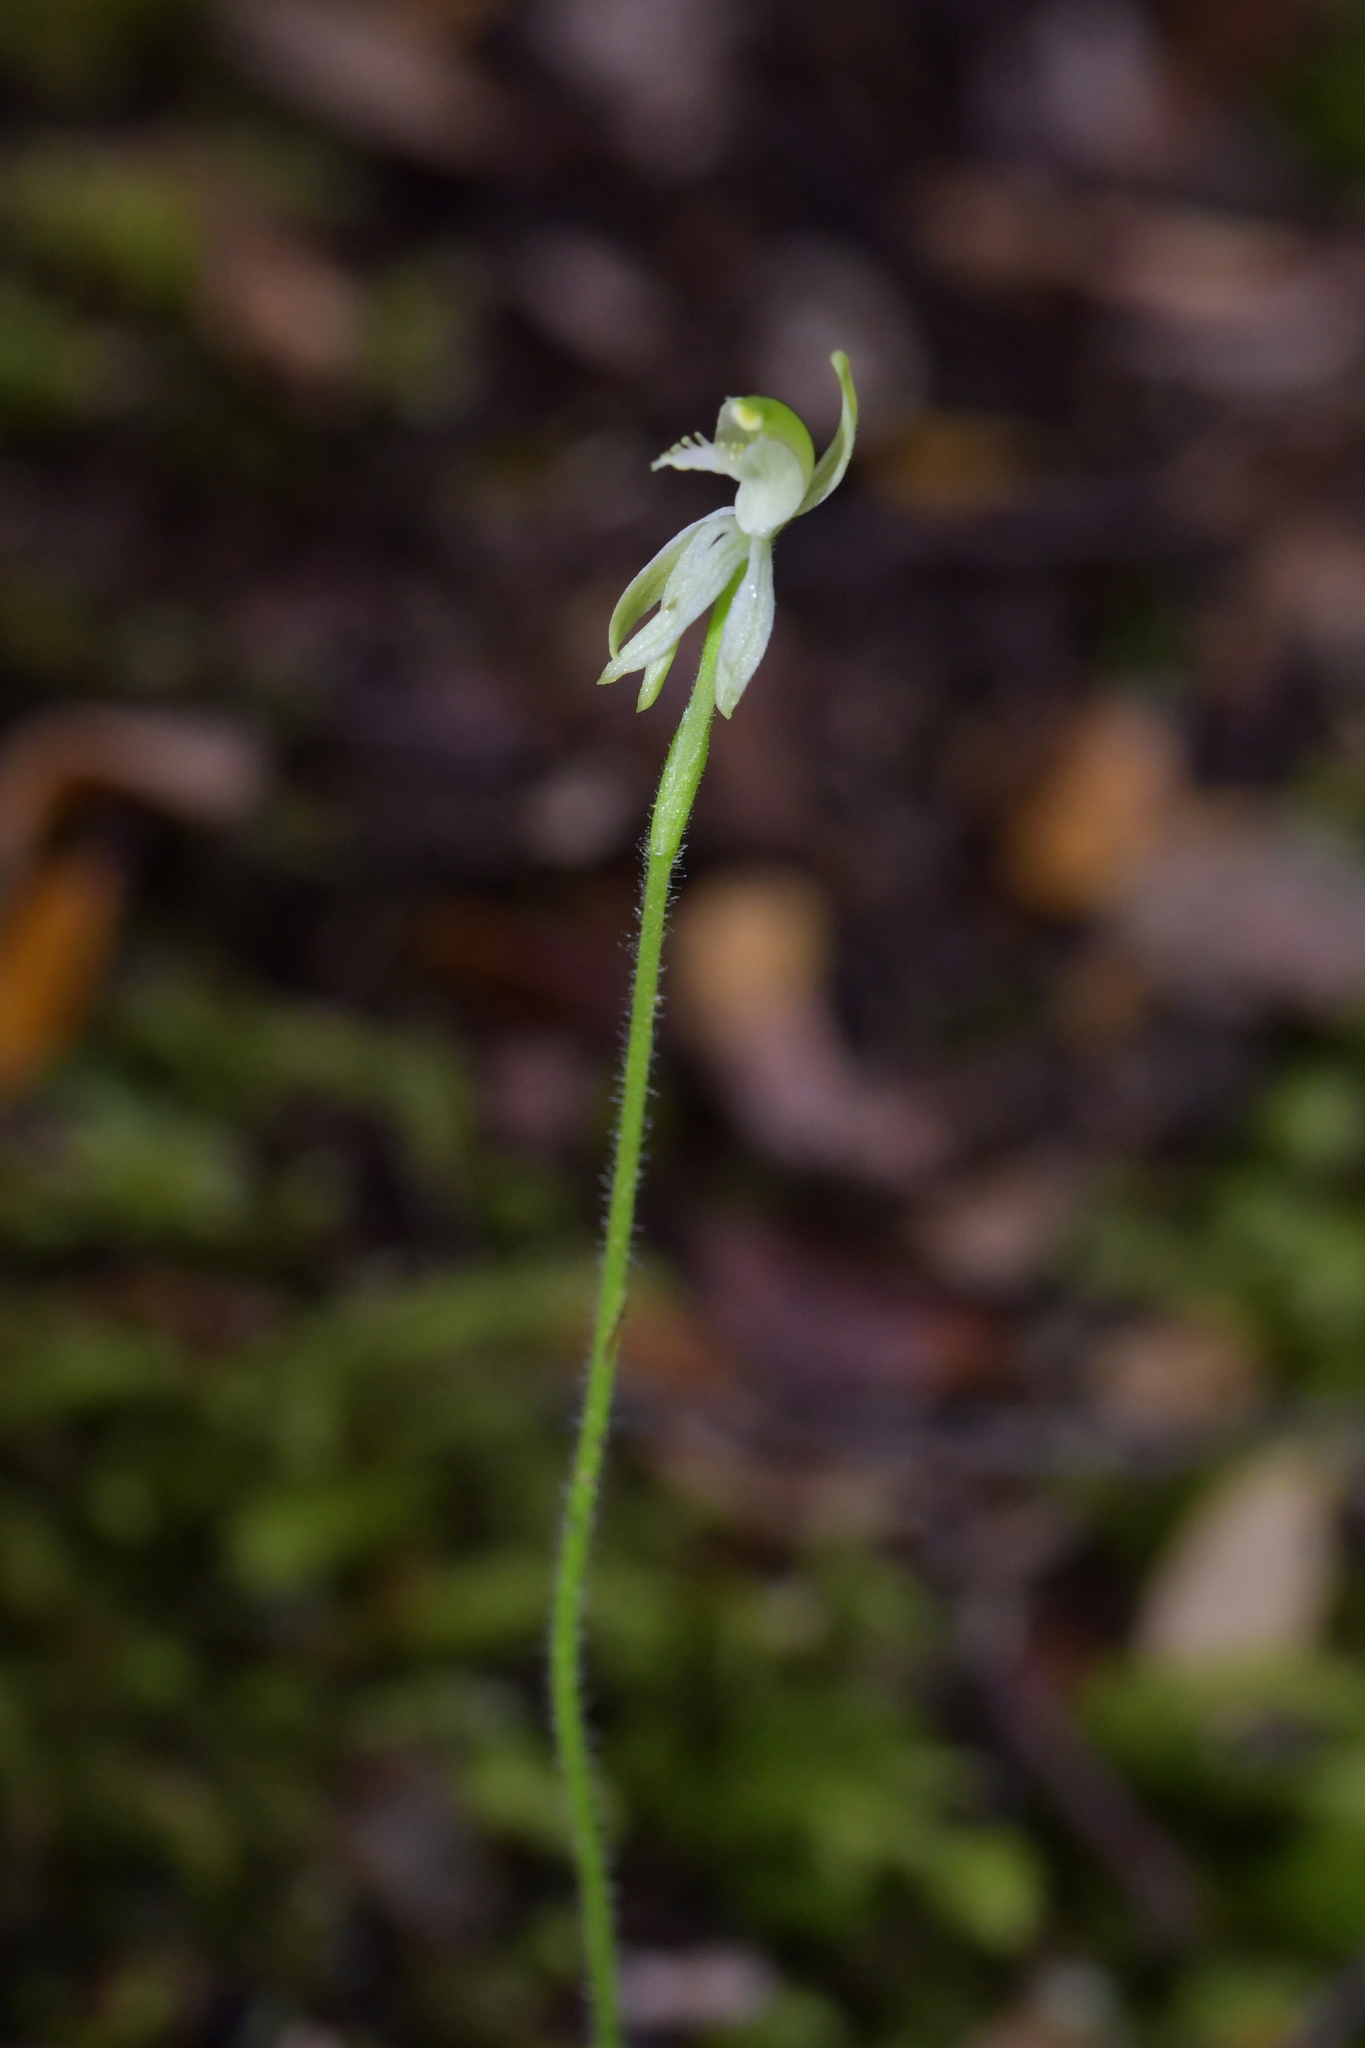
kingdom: Plantae
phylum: Tracheophyta
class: Liliopsida
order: Asparagales
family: Orchidaceae
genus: Caladenia
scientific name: Caladenia nothofageti
